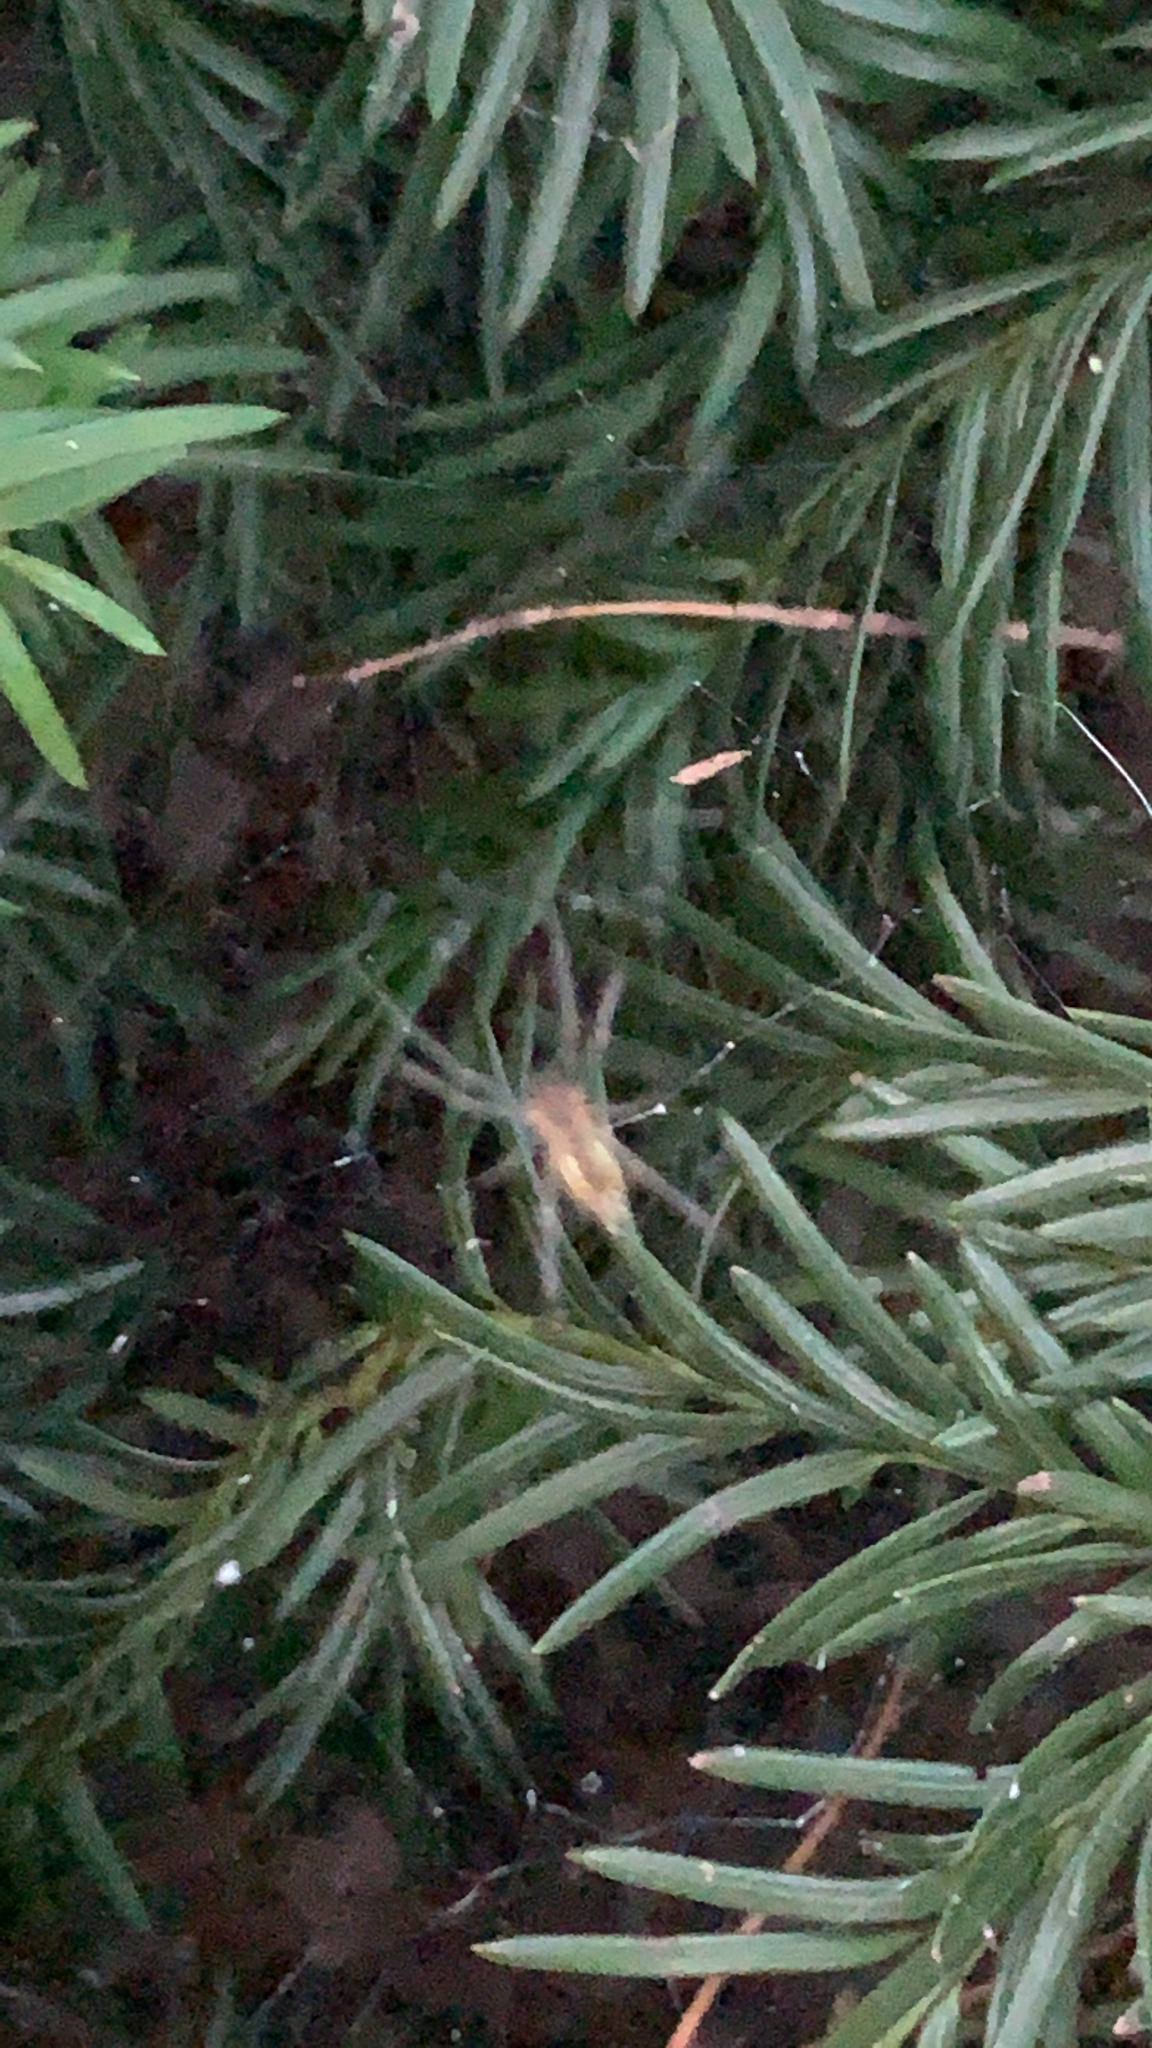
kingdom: Animalia
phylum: Arthropoda
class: Arachnida
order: Araneae
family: Araneidae
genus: Mecynogea
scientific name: Mecynogea lemniscata
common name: Orb weavers
